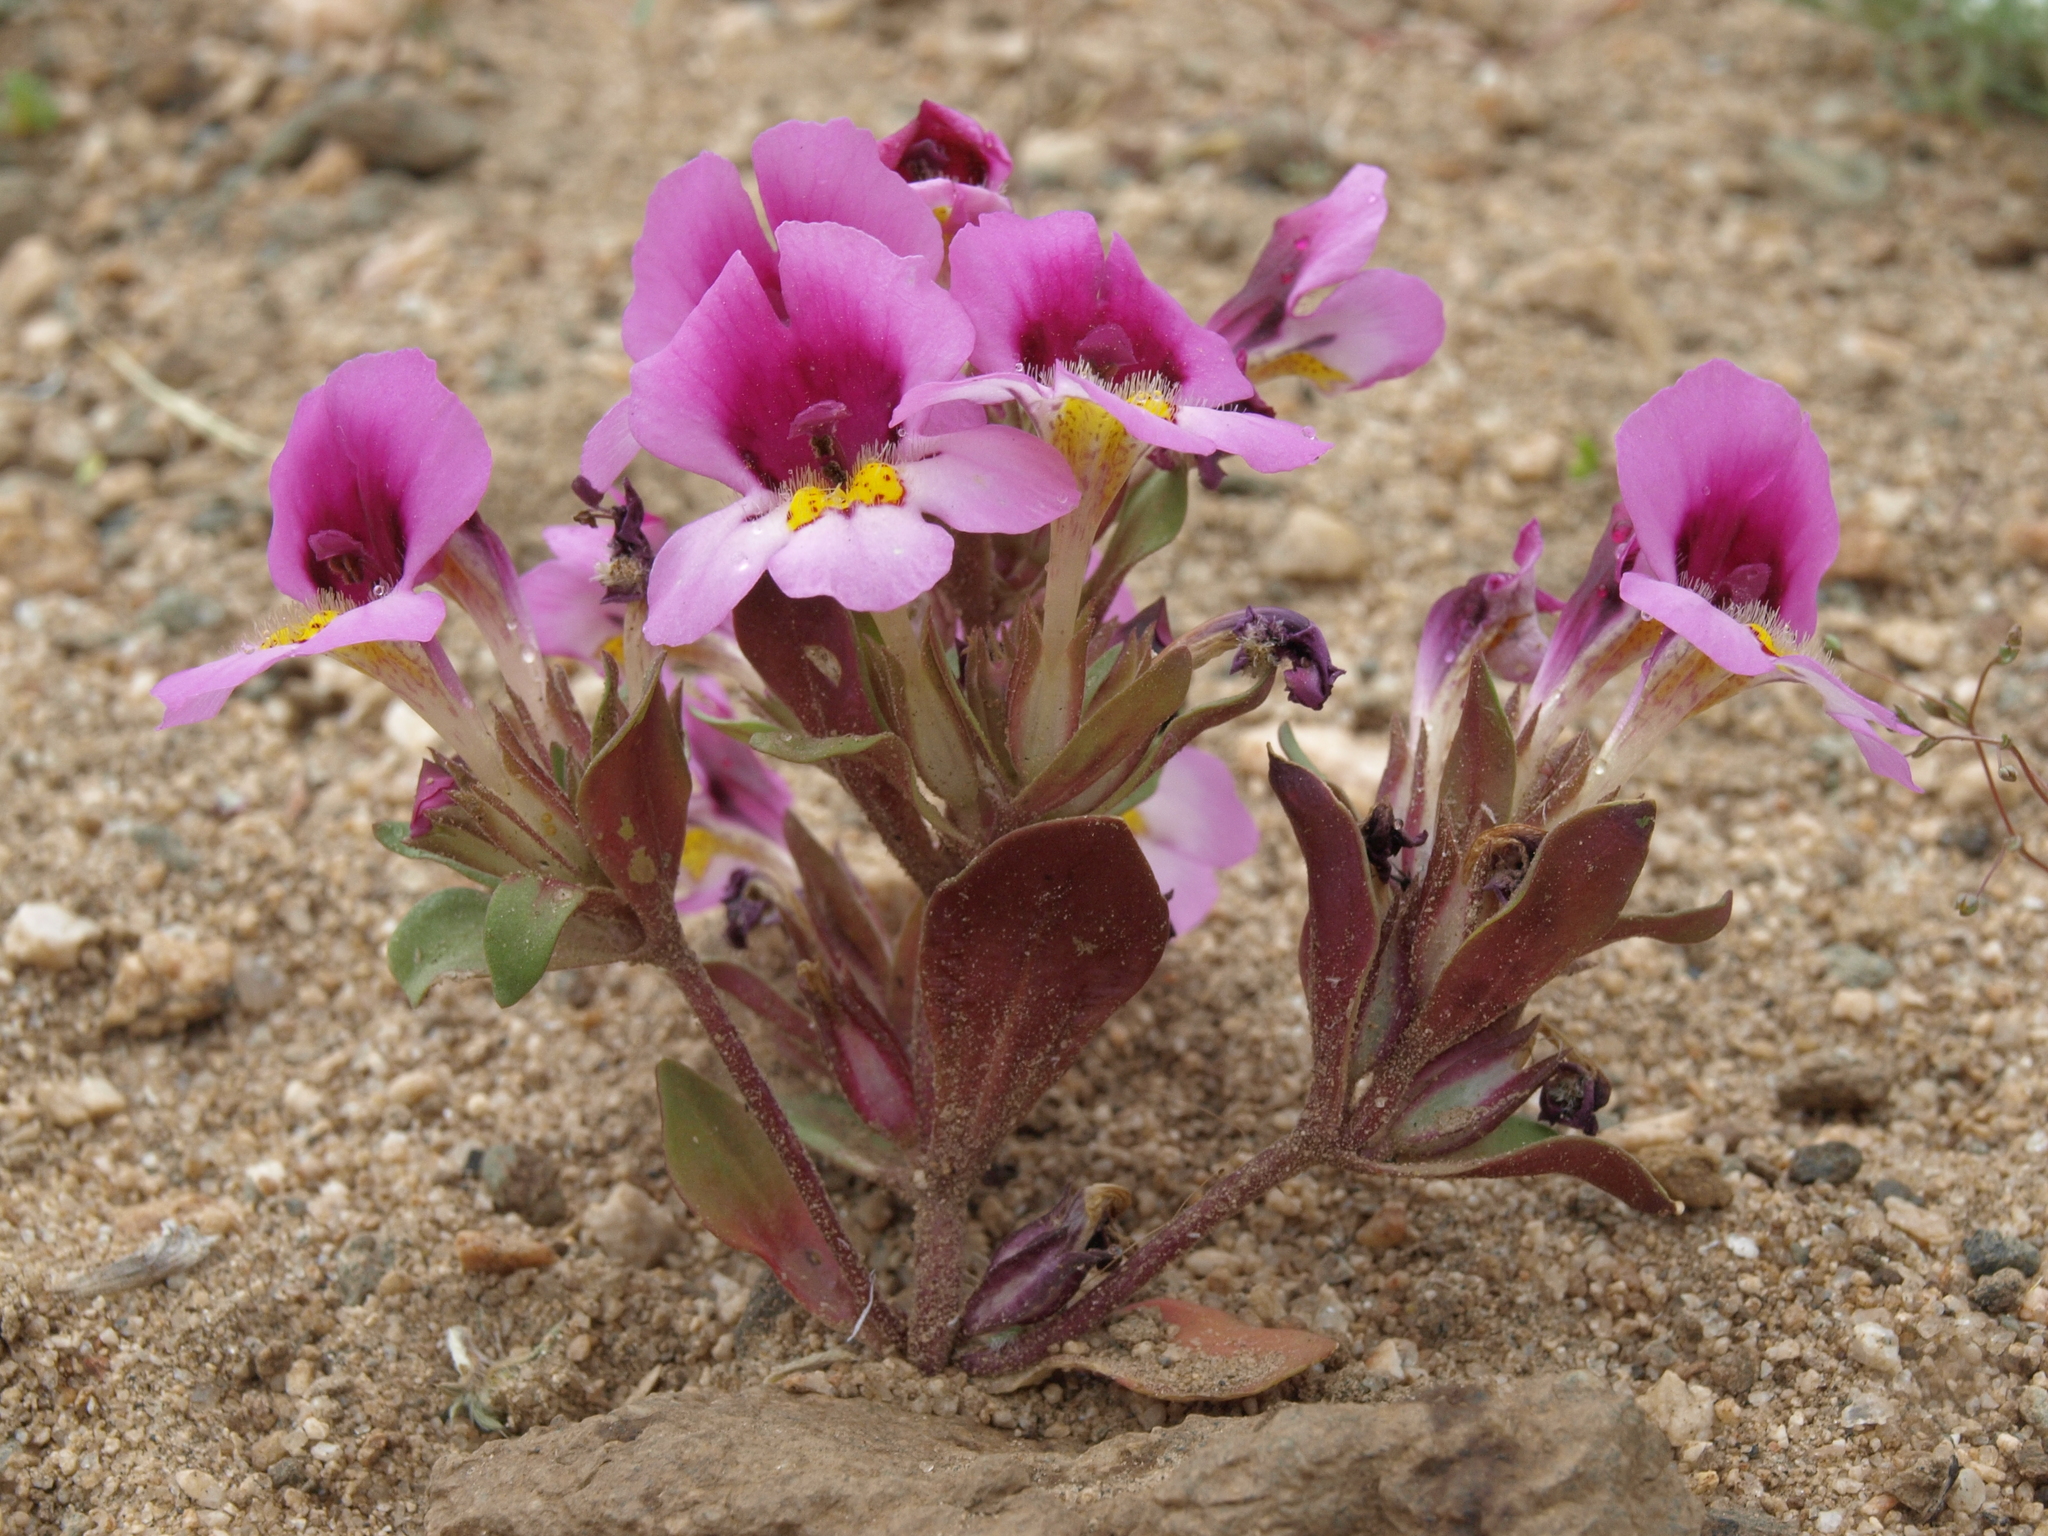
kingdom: Plantae
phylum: Tracheophyta
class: Magnoliopsida
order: Lamiales
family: Phrymaceae
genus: Diplacus
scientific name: Diplacus ovatus
